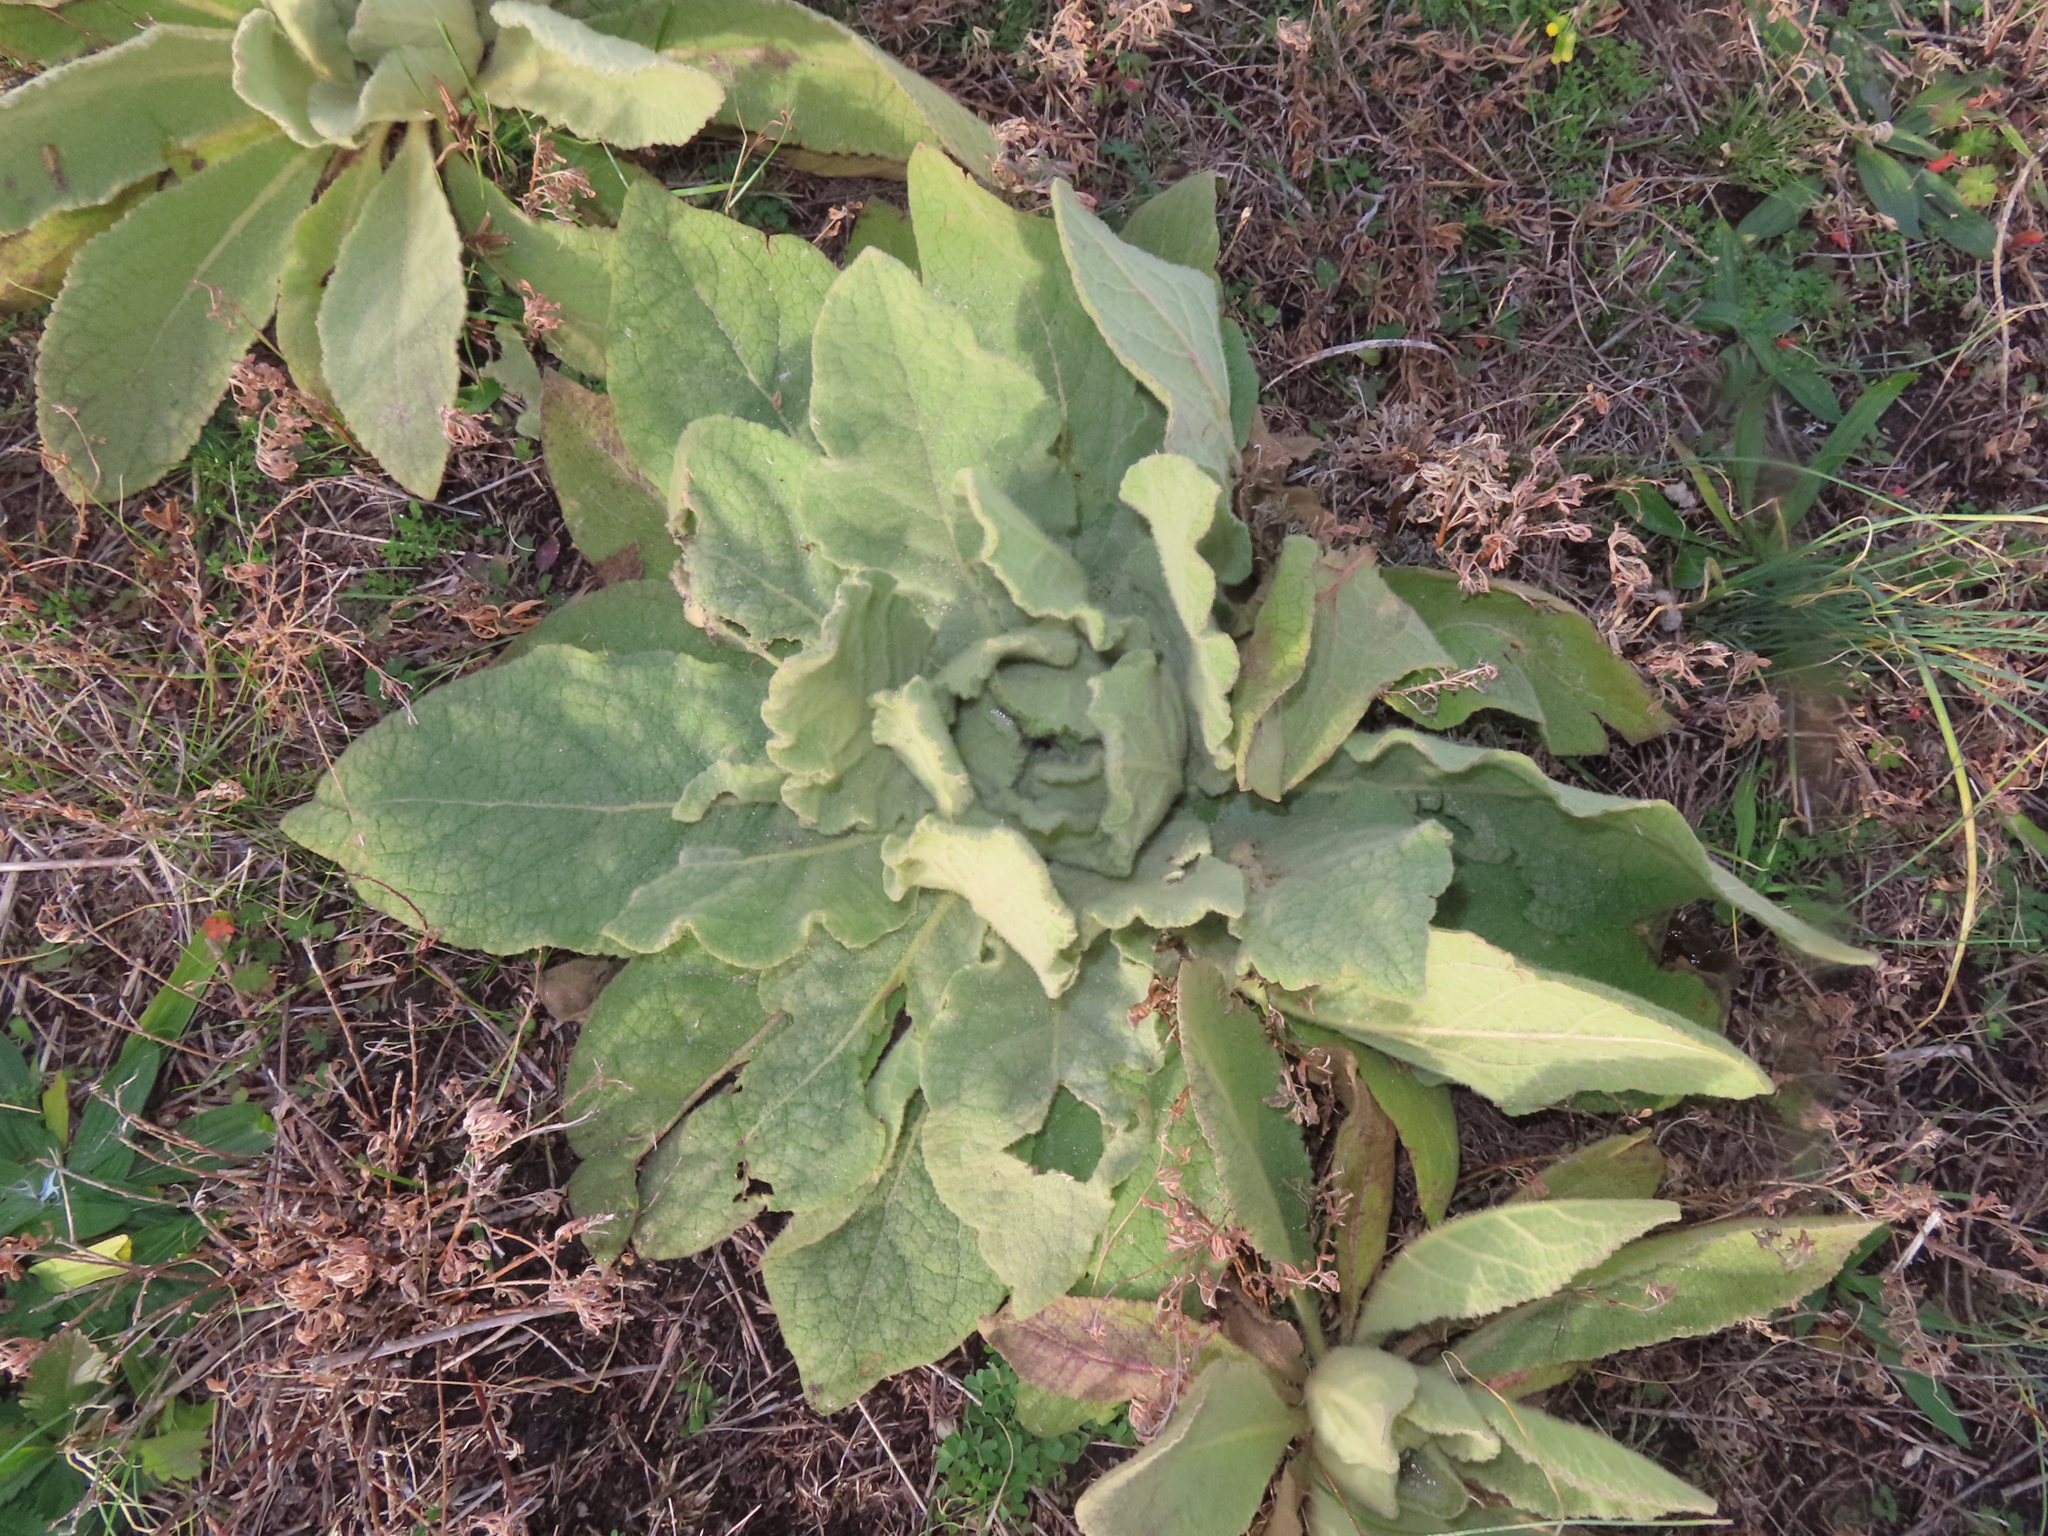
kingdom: Plantae
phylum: Tracheophyta
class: Magnoliopsida
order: Lamiales
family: Scrophulariaceae
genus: Verbascum
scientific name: Verbascum thapsus
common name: Common mullein
